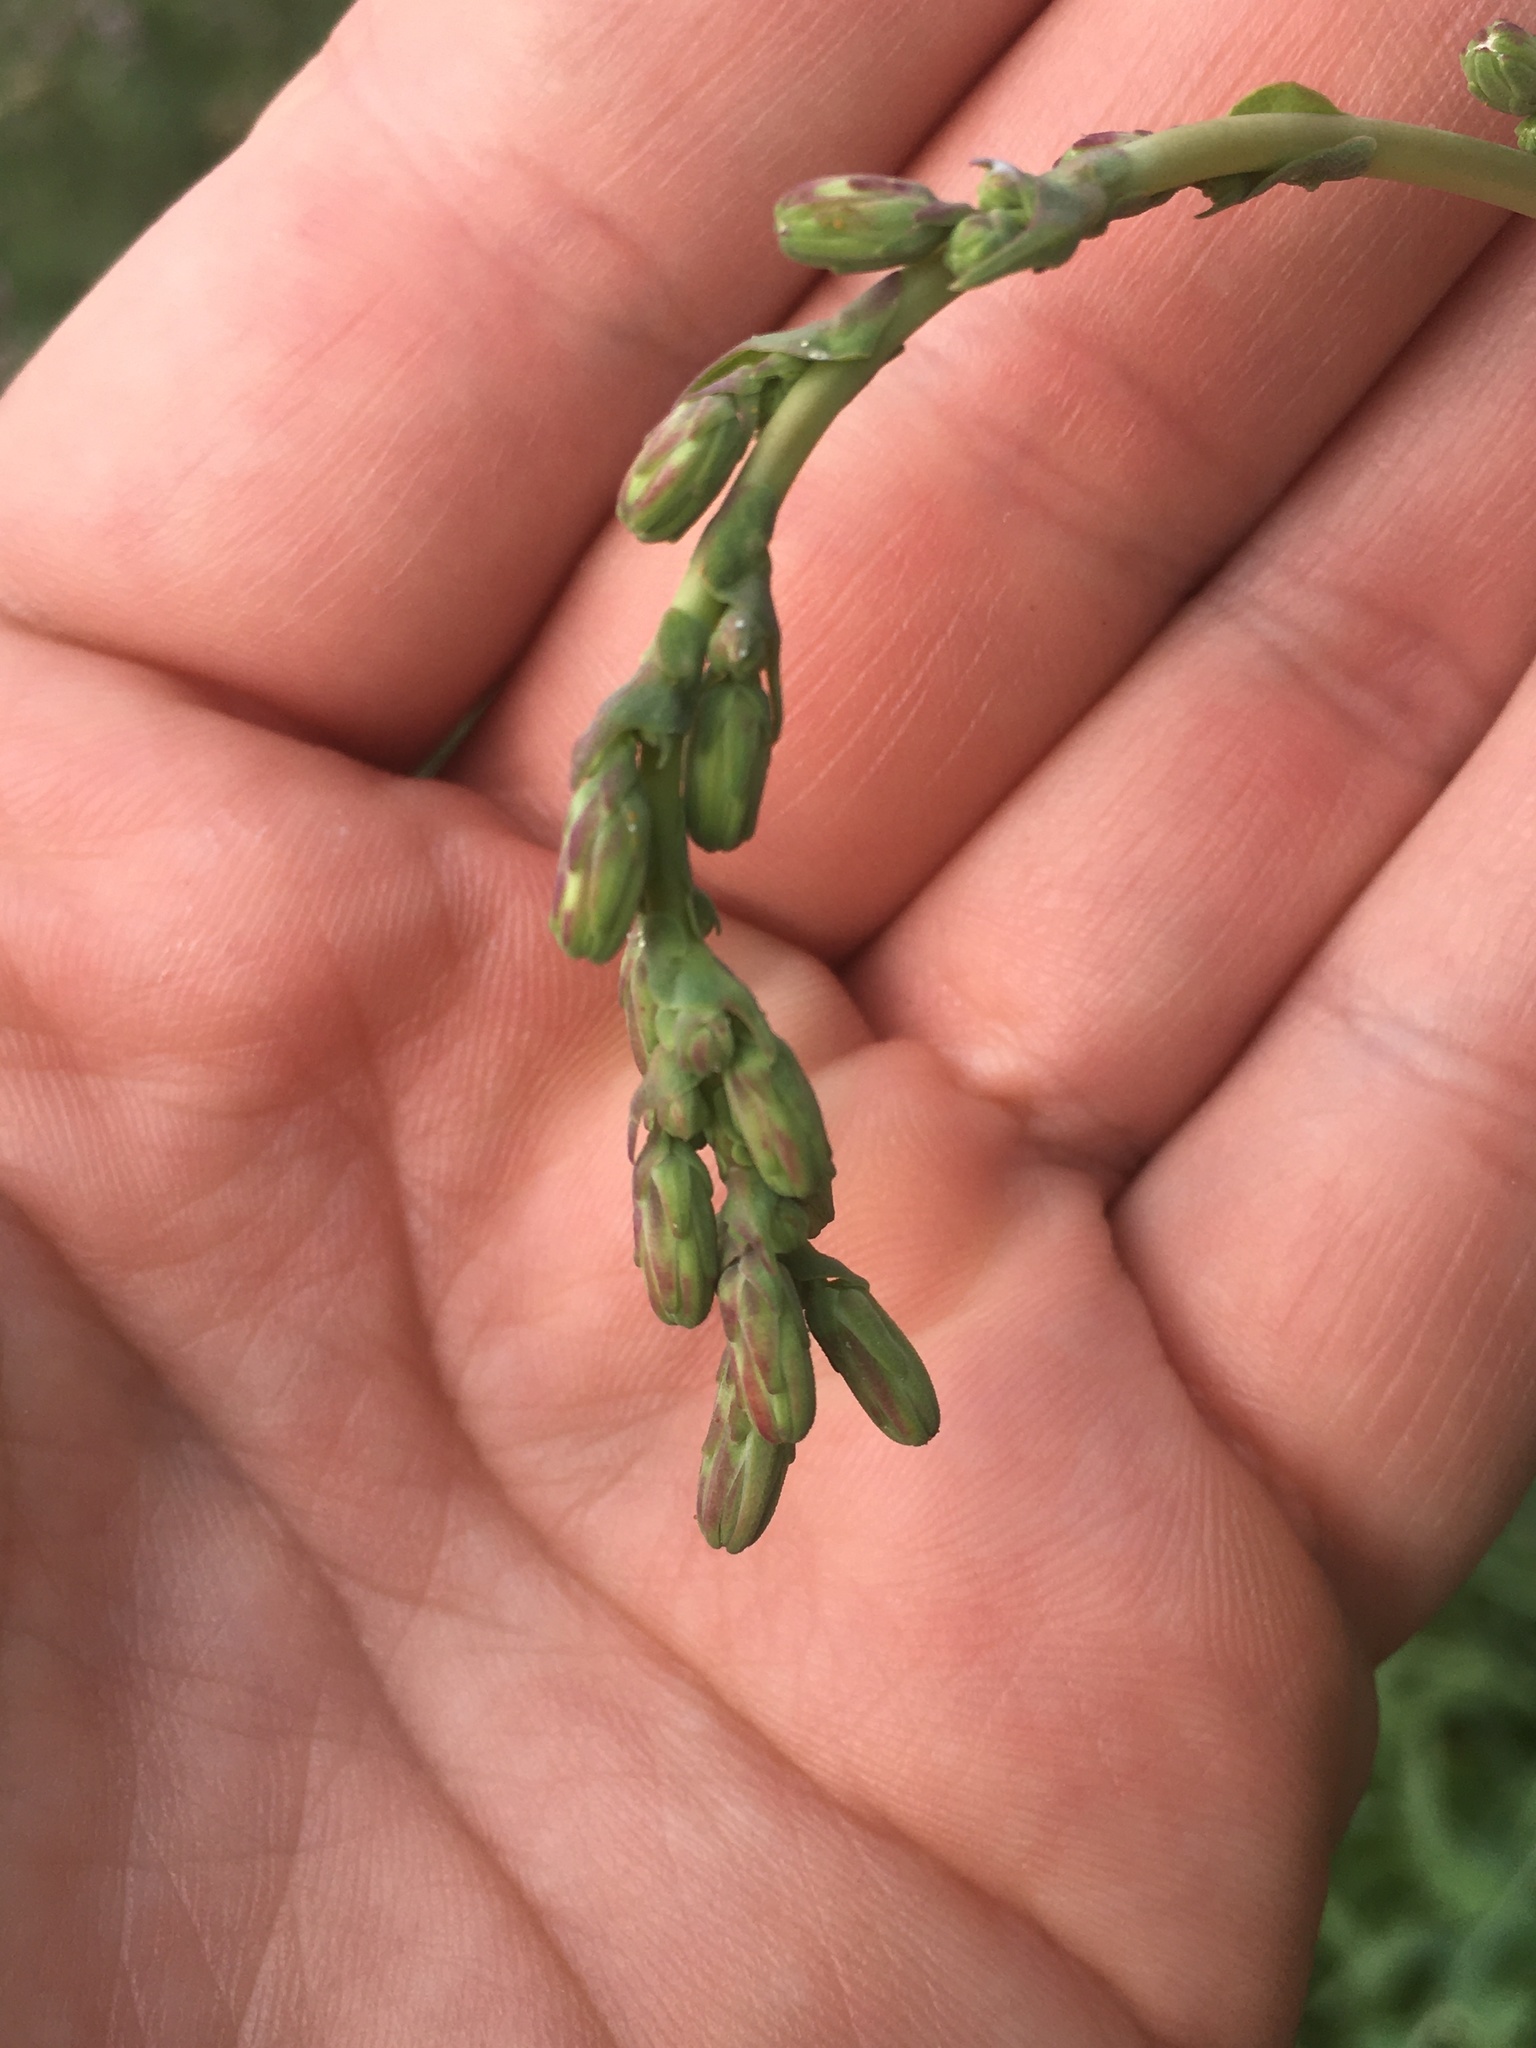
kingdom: Plantae
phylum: Tracheophyta
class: Magnoliopsida
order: Asterales
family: Asteraceae
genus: Lactuca
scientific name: Lactuca serriola
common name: Prickly lettuce
